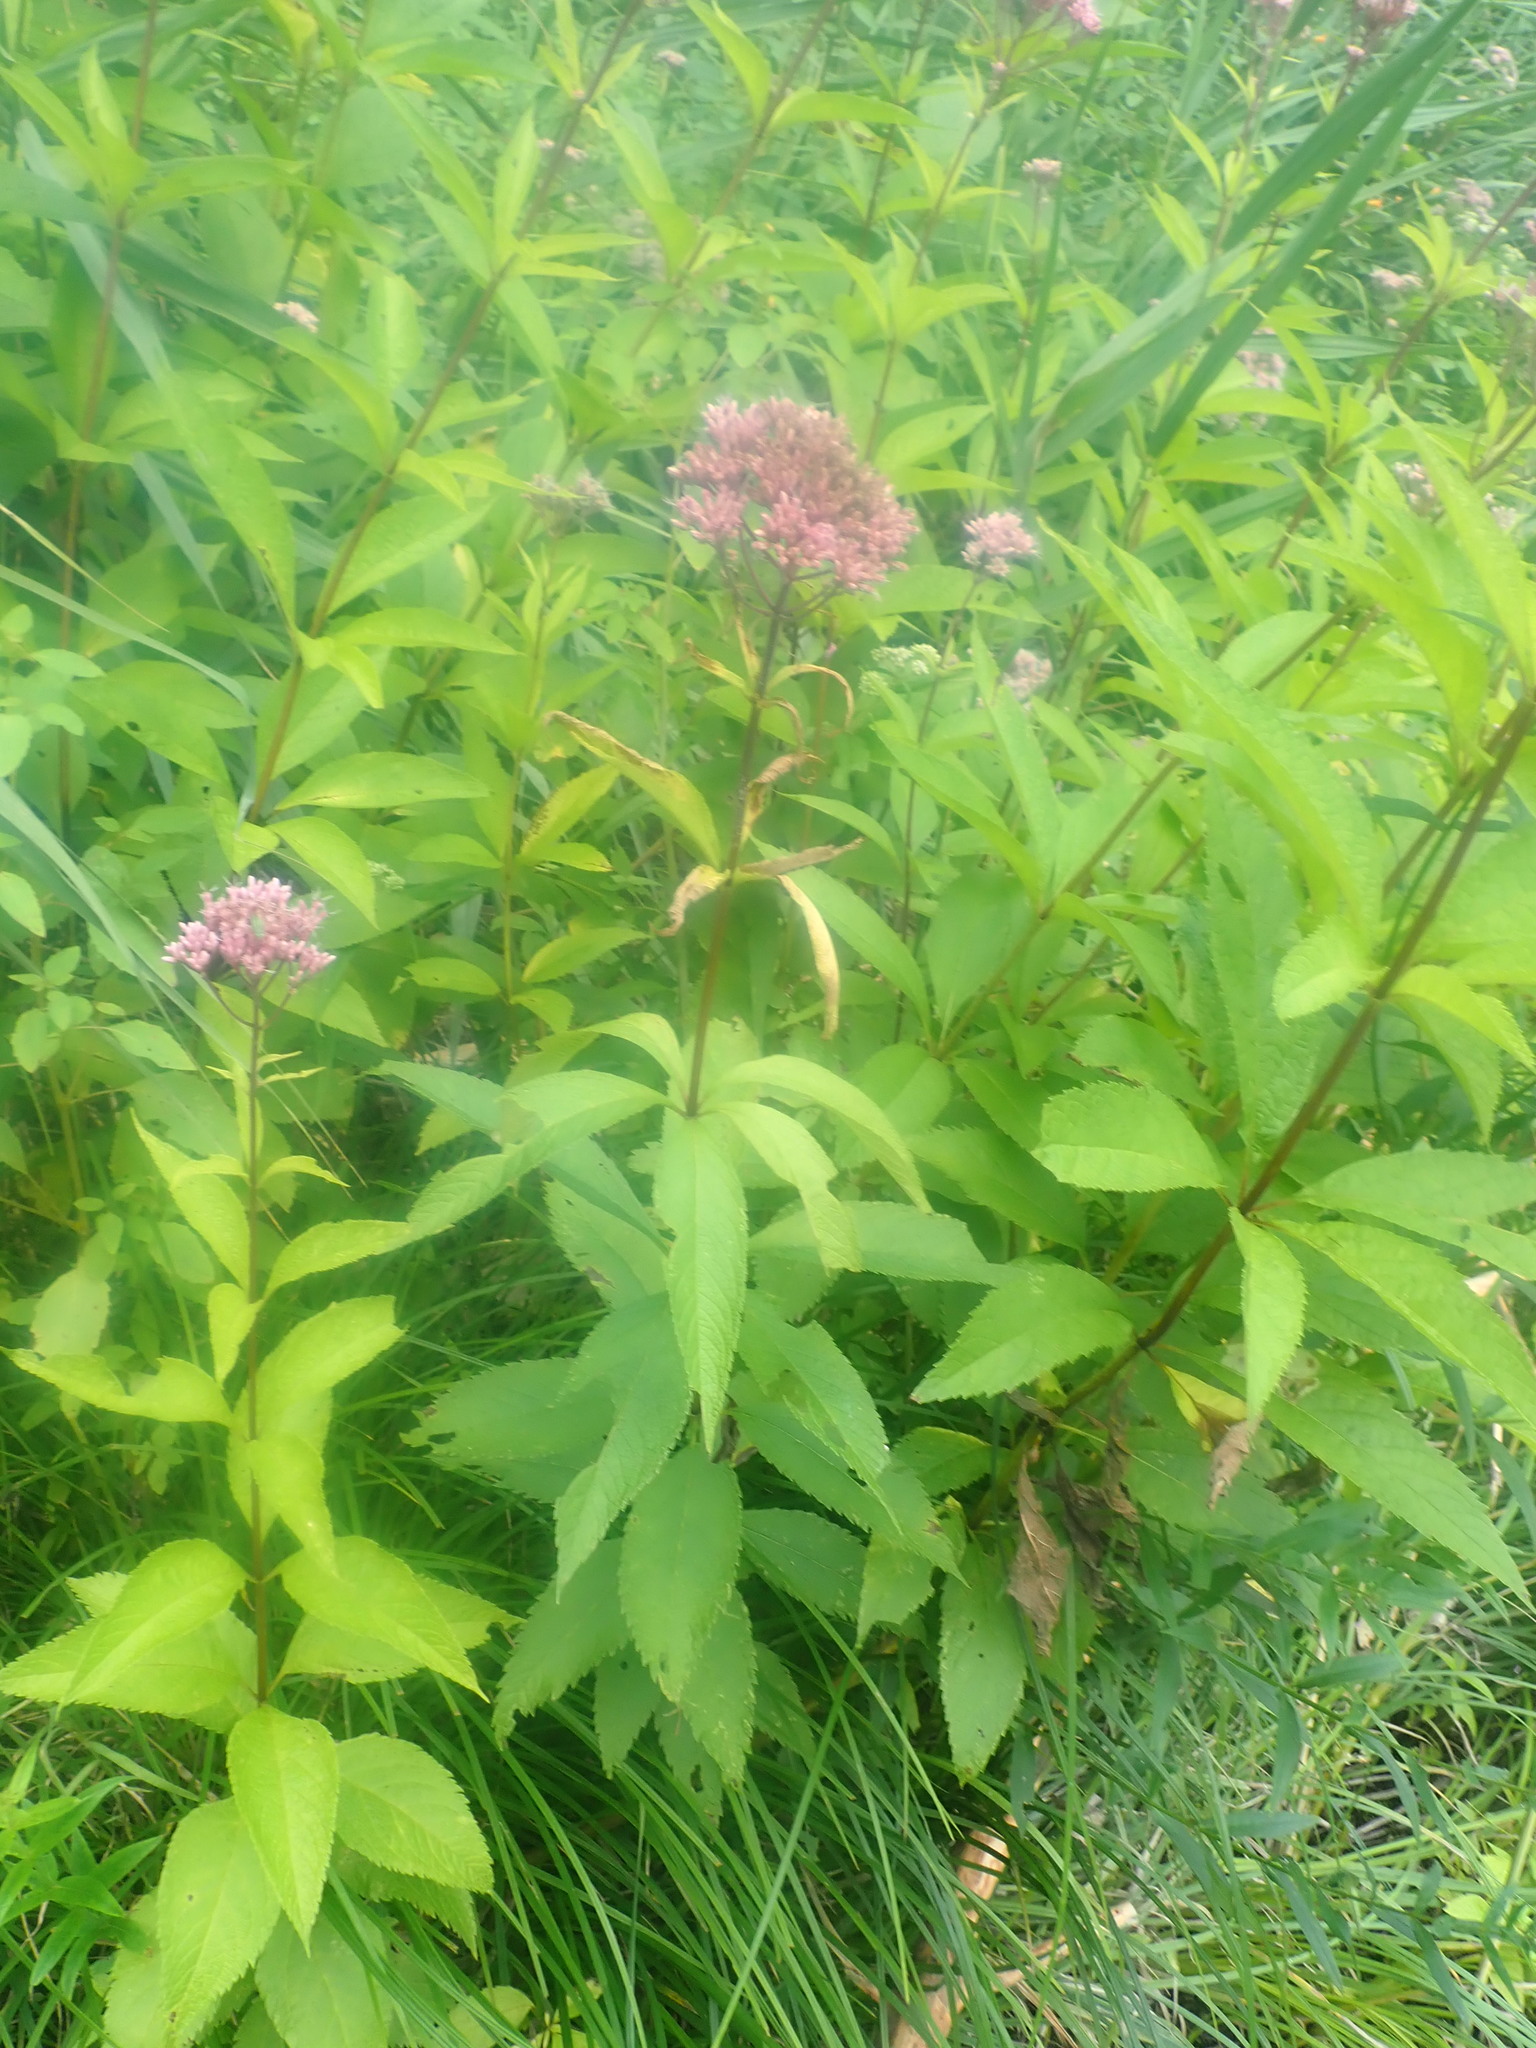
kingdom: Plantae
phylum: Tracheophyta
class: Magnoliopsida
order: Asterales
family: Asteraceae
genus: Eutrochium
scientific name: Eutrochium maculatum
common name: Spotted joe pye weed
